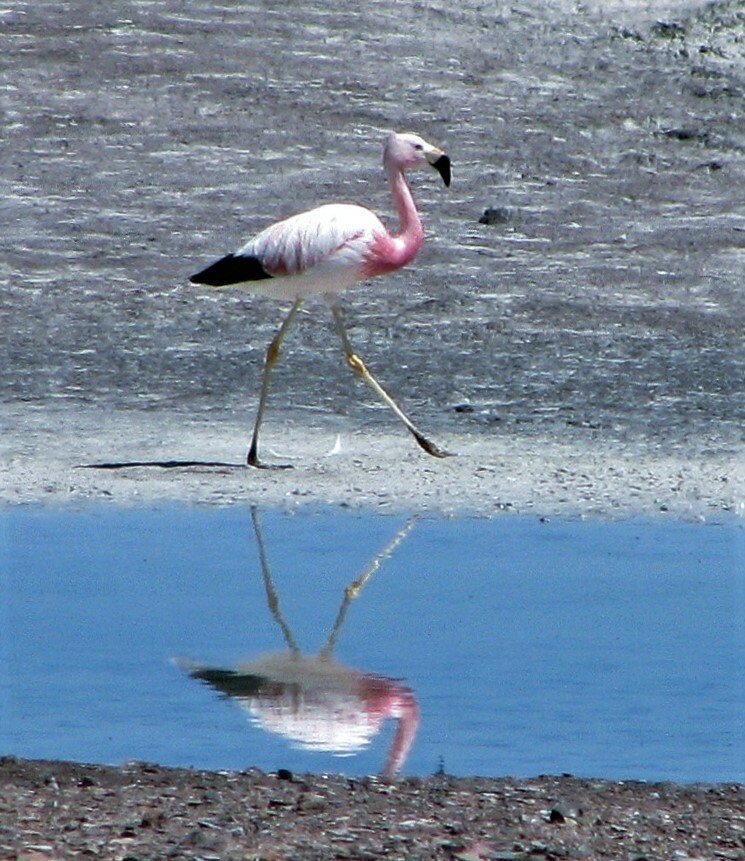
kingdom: Animalia
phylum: Chordata
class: Aves
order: Phoenicopteriformes
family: Phoenicopteridae
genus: Phoenicoparrus
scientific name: Phoenicoparrus andinus
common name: Andean flamingo
